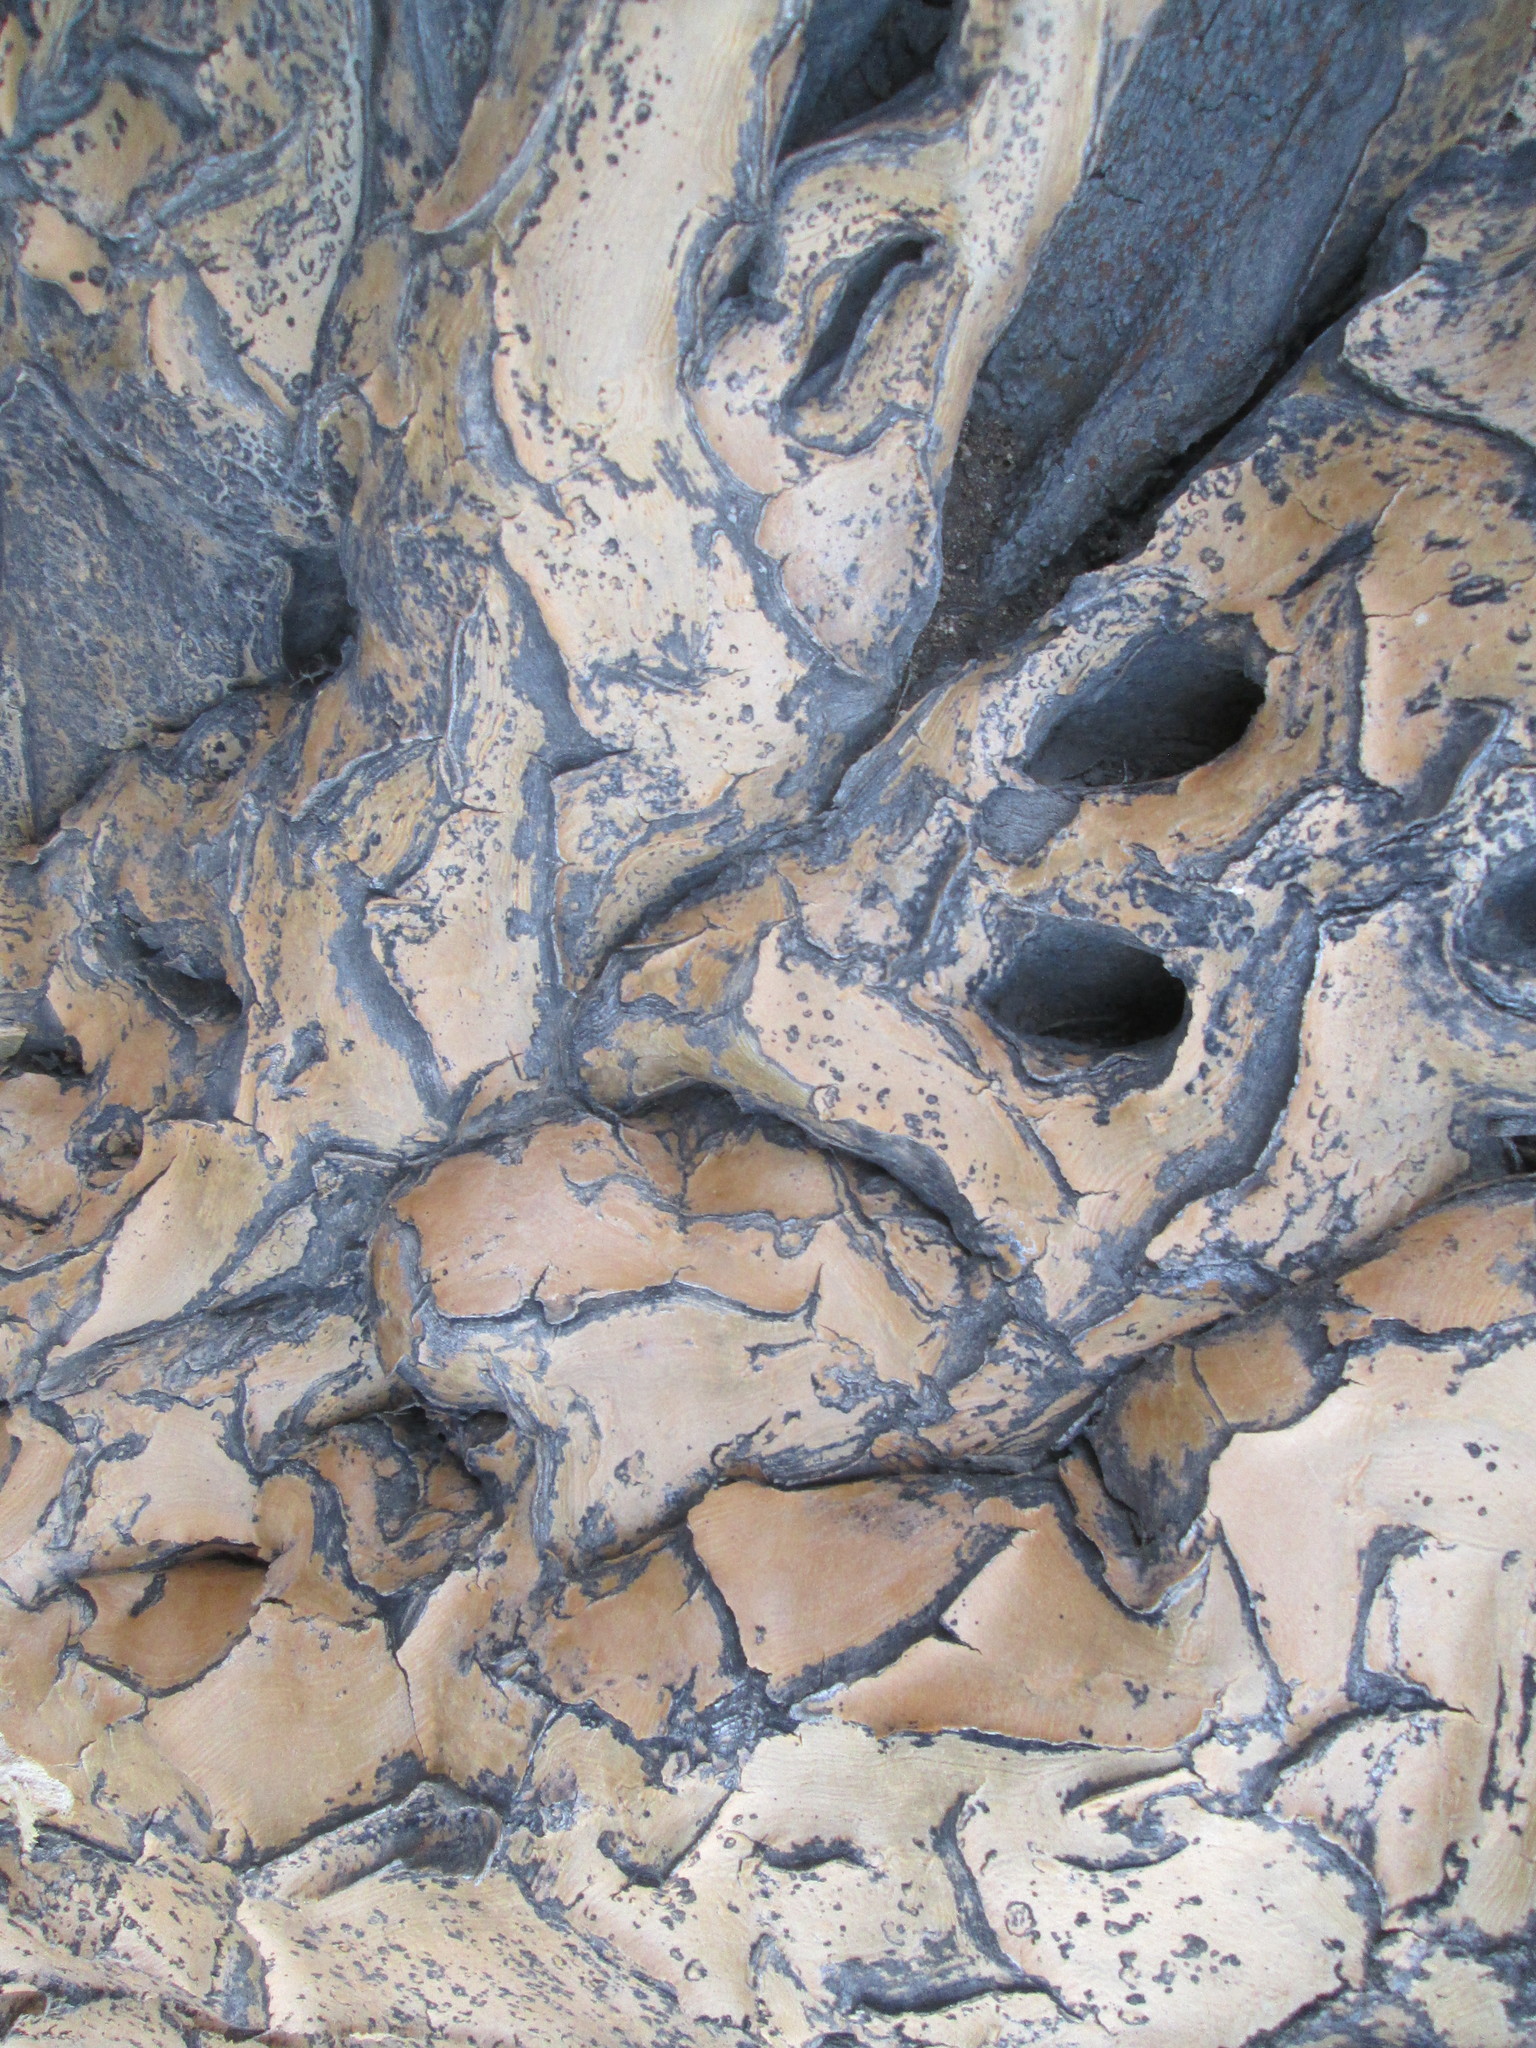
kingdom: Plantae
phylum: Tracheophyta
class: Liliopsida
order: Asparagales
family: Asphodelaceae
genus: Aloidendron
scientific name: Aloidendron dichotomum
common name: Quiver tree
